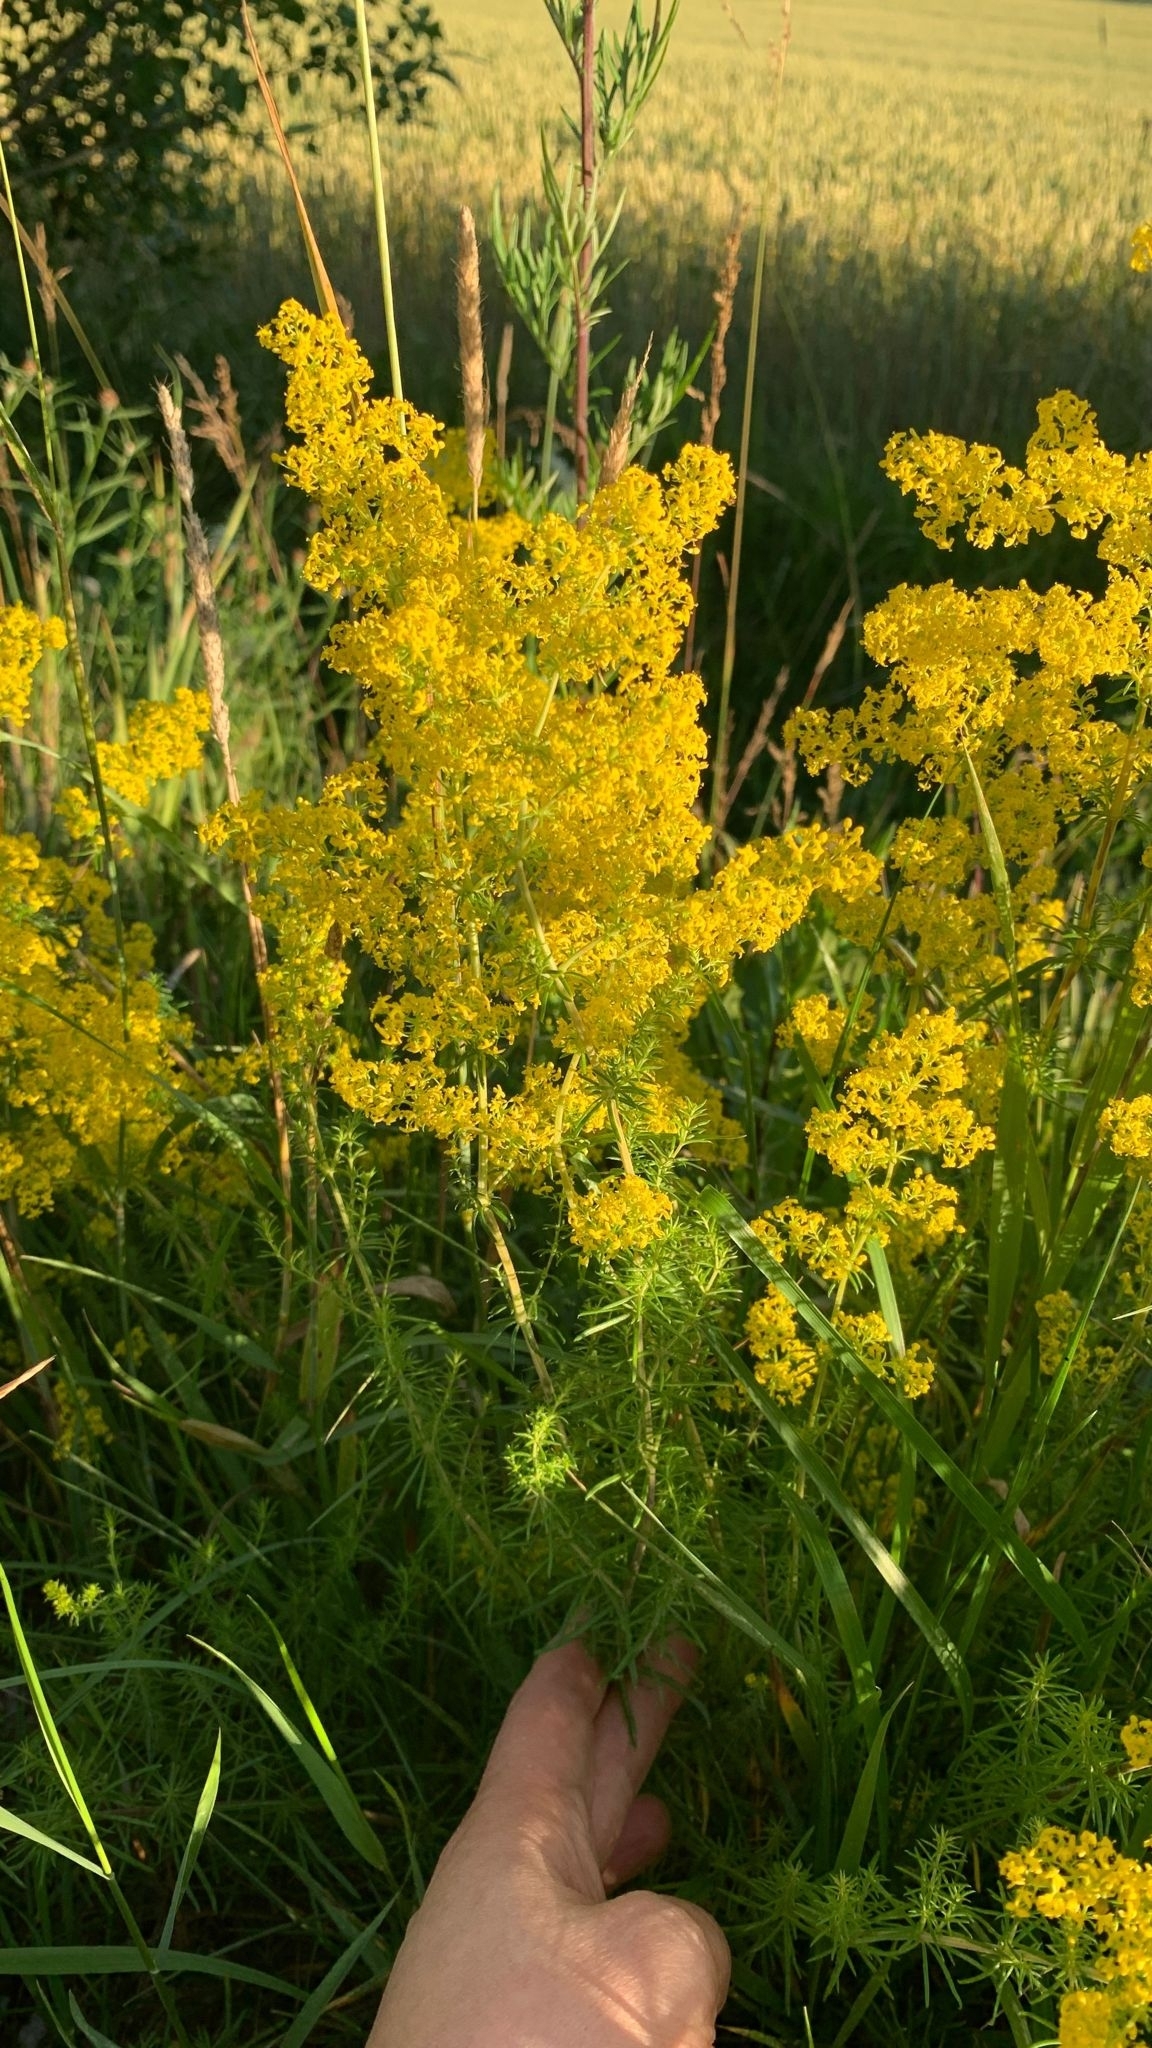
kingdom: Plantae
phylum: Tracheophyta
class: Magnoliopsida
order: Gentianales
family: Rubiaceae
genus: Galium
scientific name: Galium verum
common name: Lady's bedstraw
